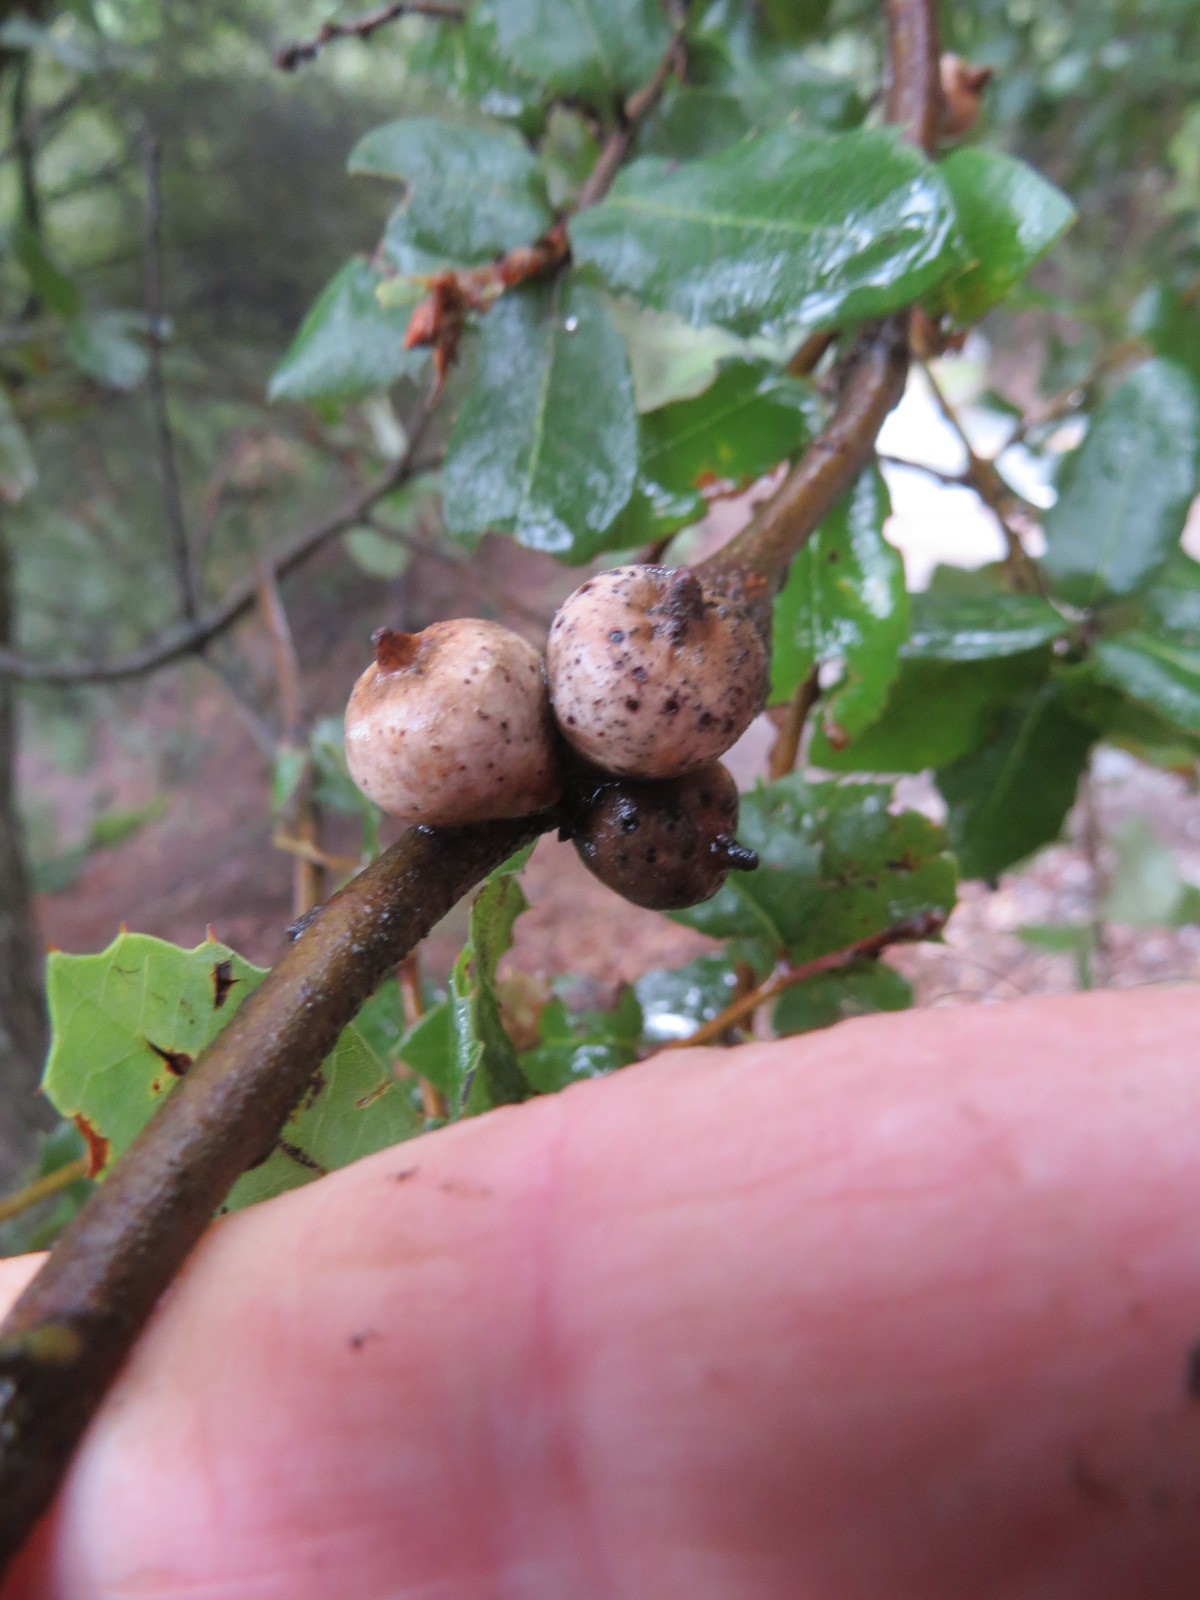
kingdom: Animalia
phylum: Arthropoda
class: Insecta
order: Hymenoptera
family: Cynipidae
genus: Heteroecus
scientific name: Heteroecus
